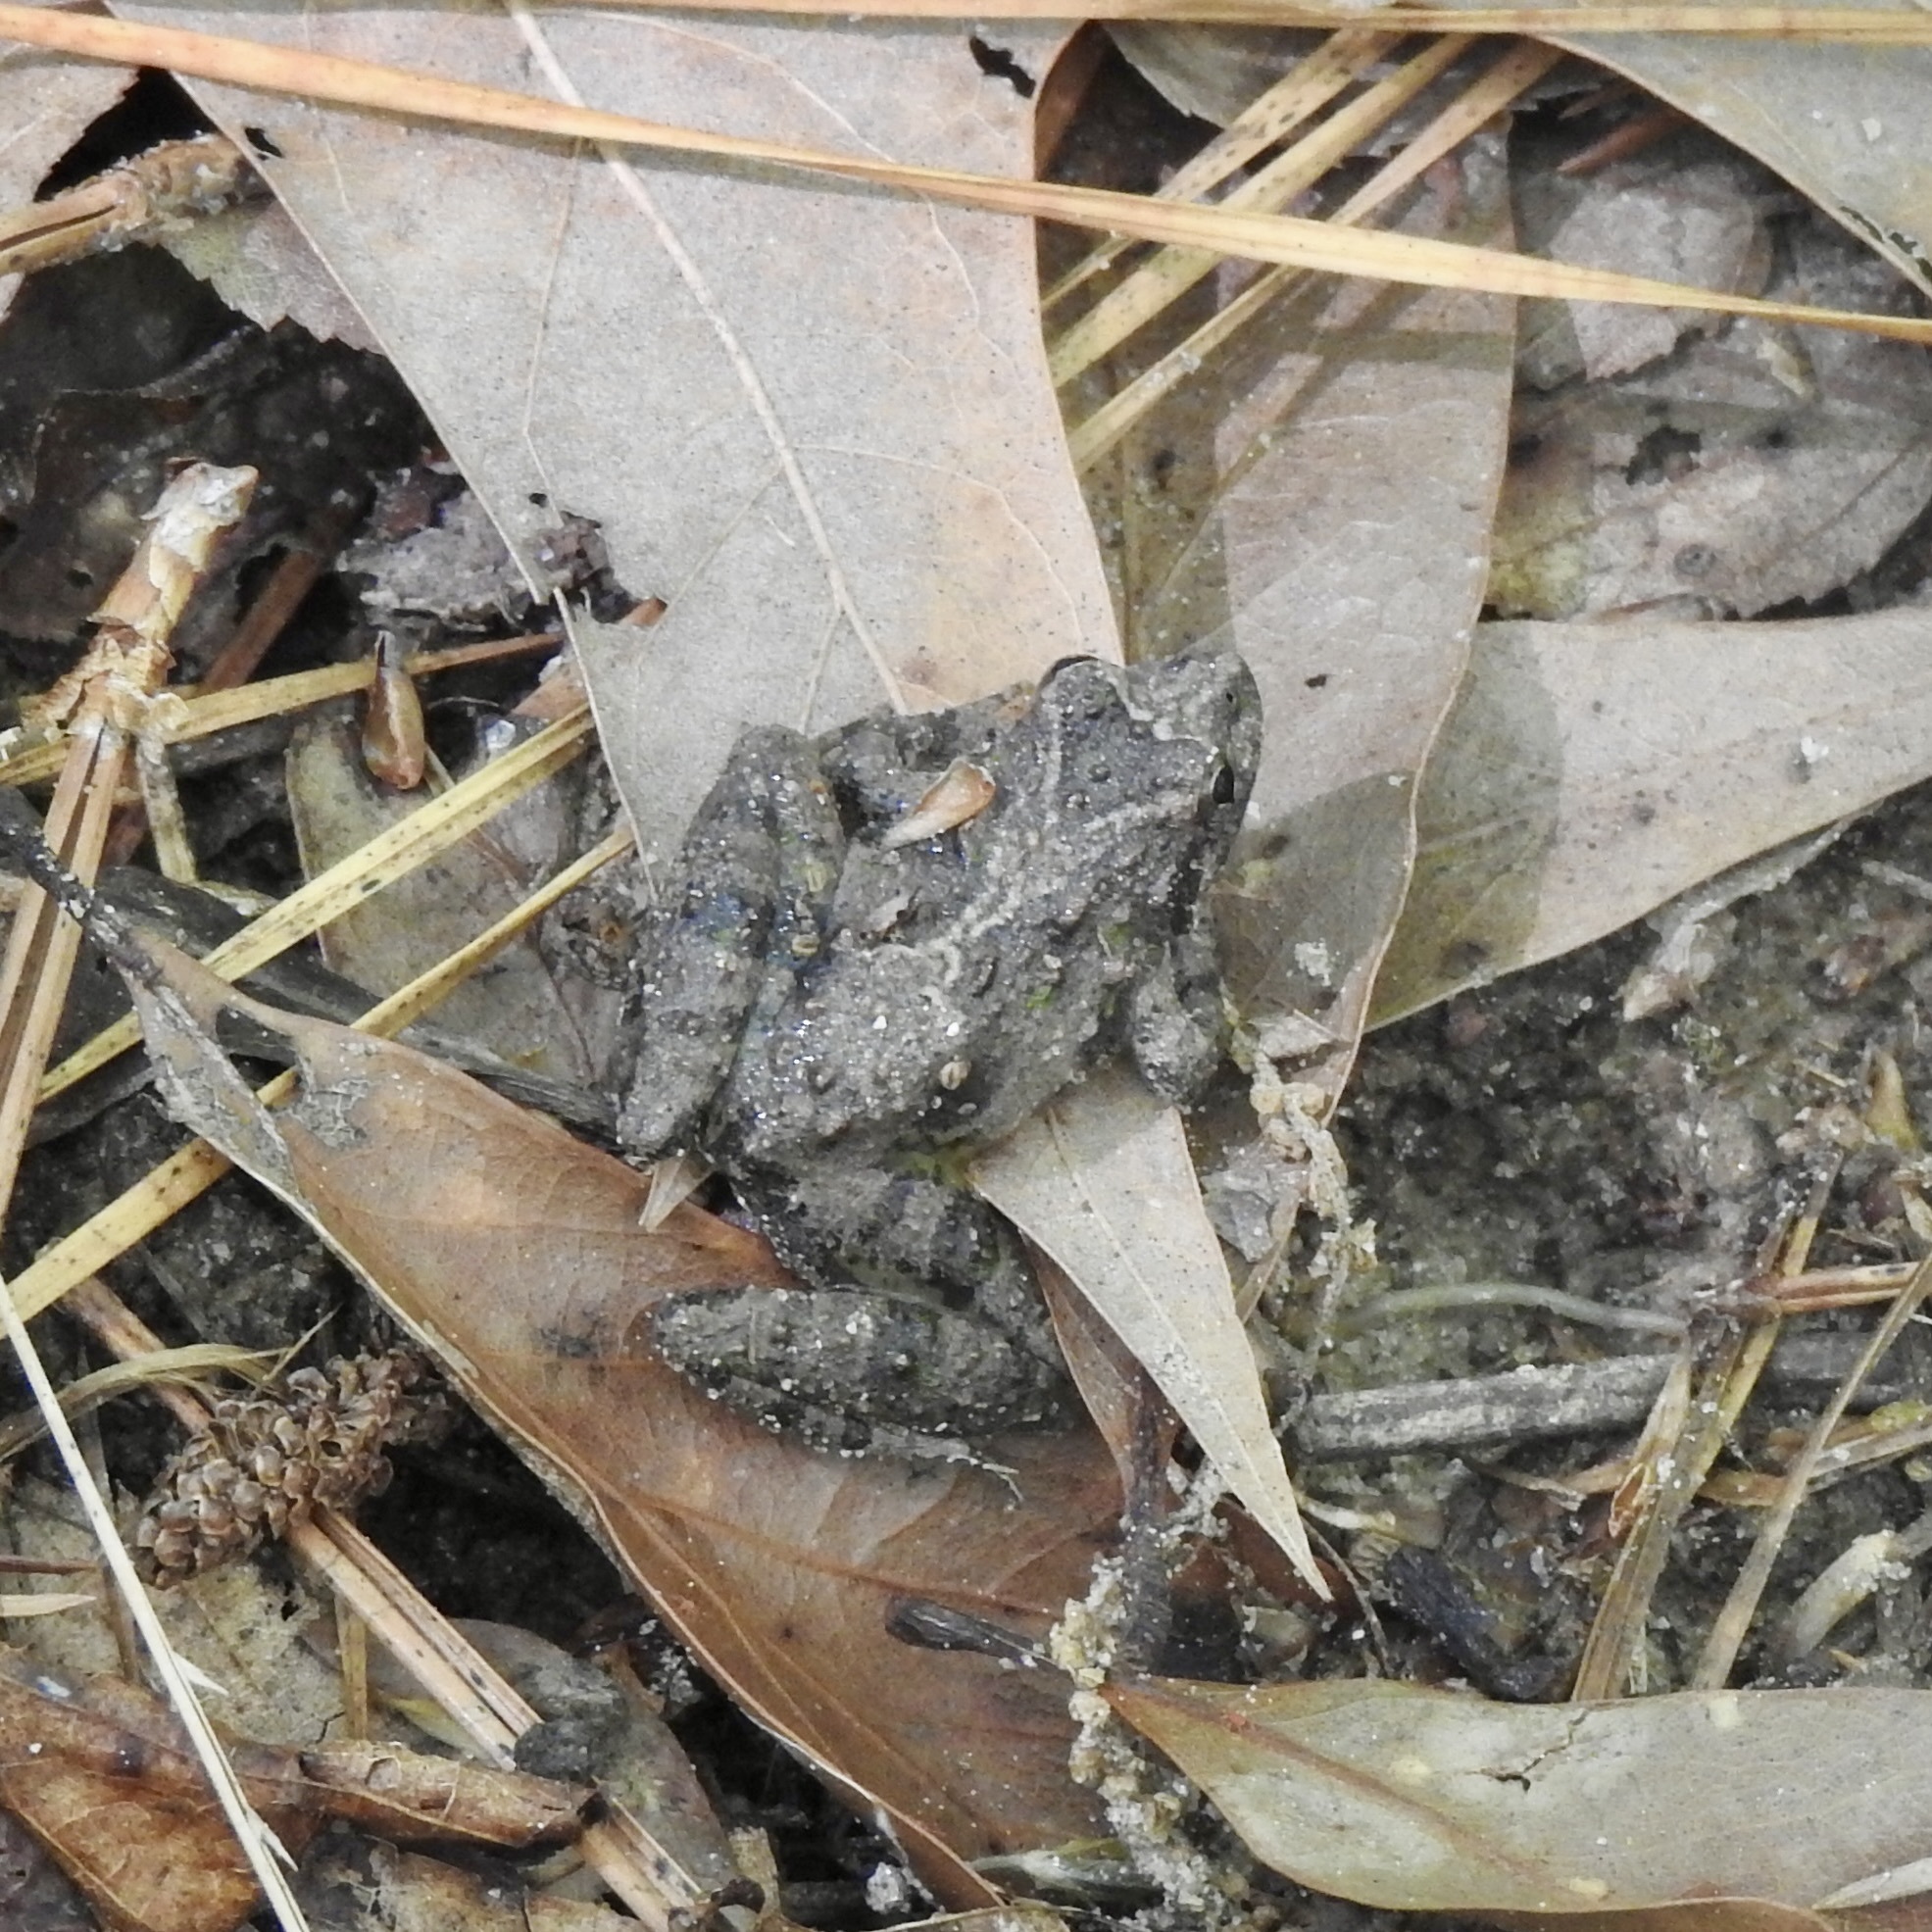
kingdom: Animalia
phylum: Chordata
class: Amphibia
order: Anura
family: Hylidae
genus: Acris
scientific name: Acris blanchardi
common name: Blanchard's cricket frog
